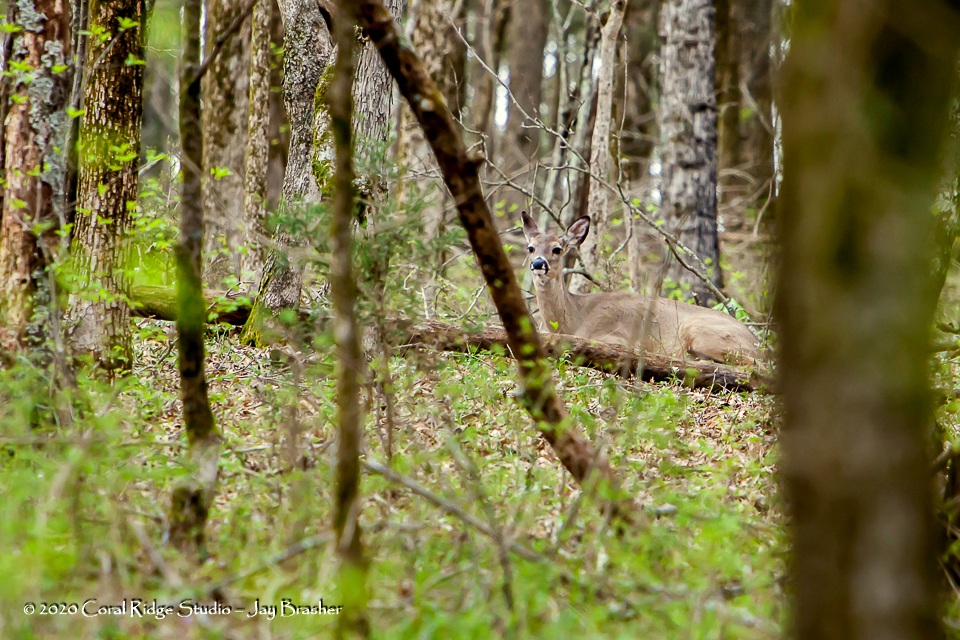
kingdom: Animalia
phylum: Chordata
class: Mammalia
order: Artiodactyla
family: Cervidae
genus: Odocoileus
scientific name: Odocoileus virginianus
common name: White-tailed deer
